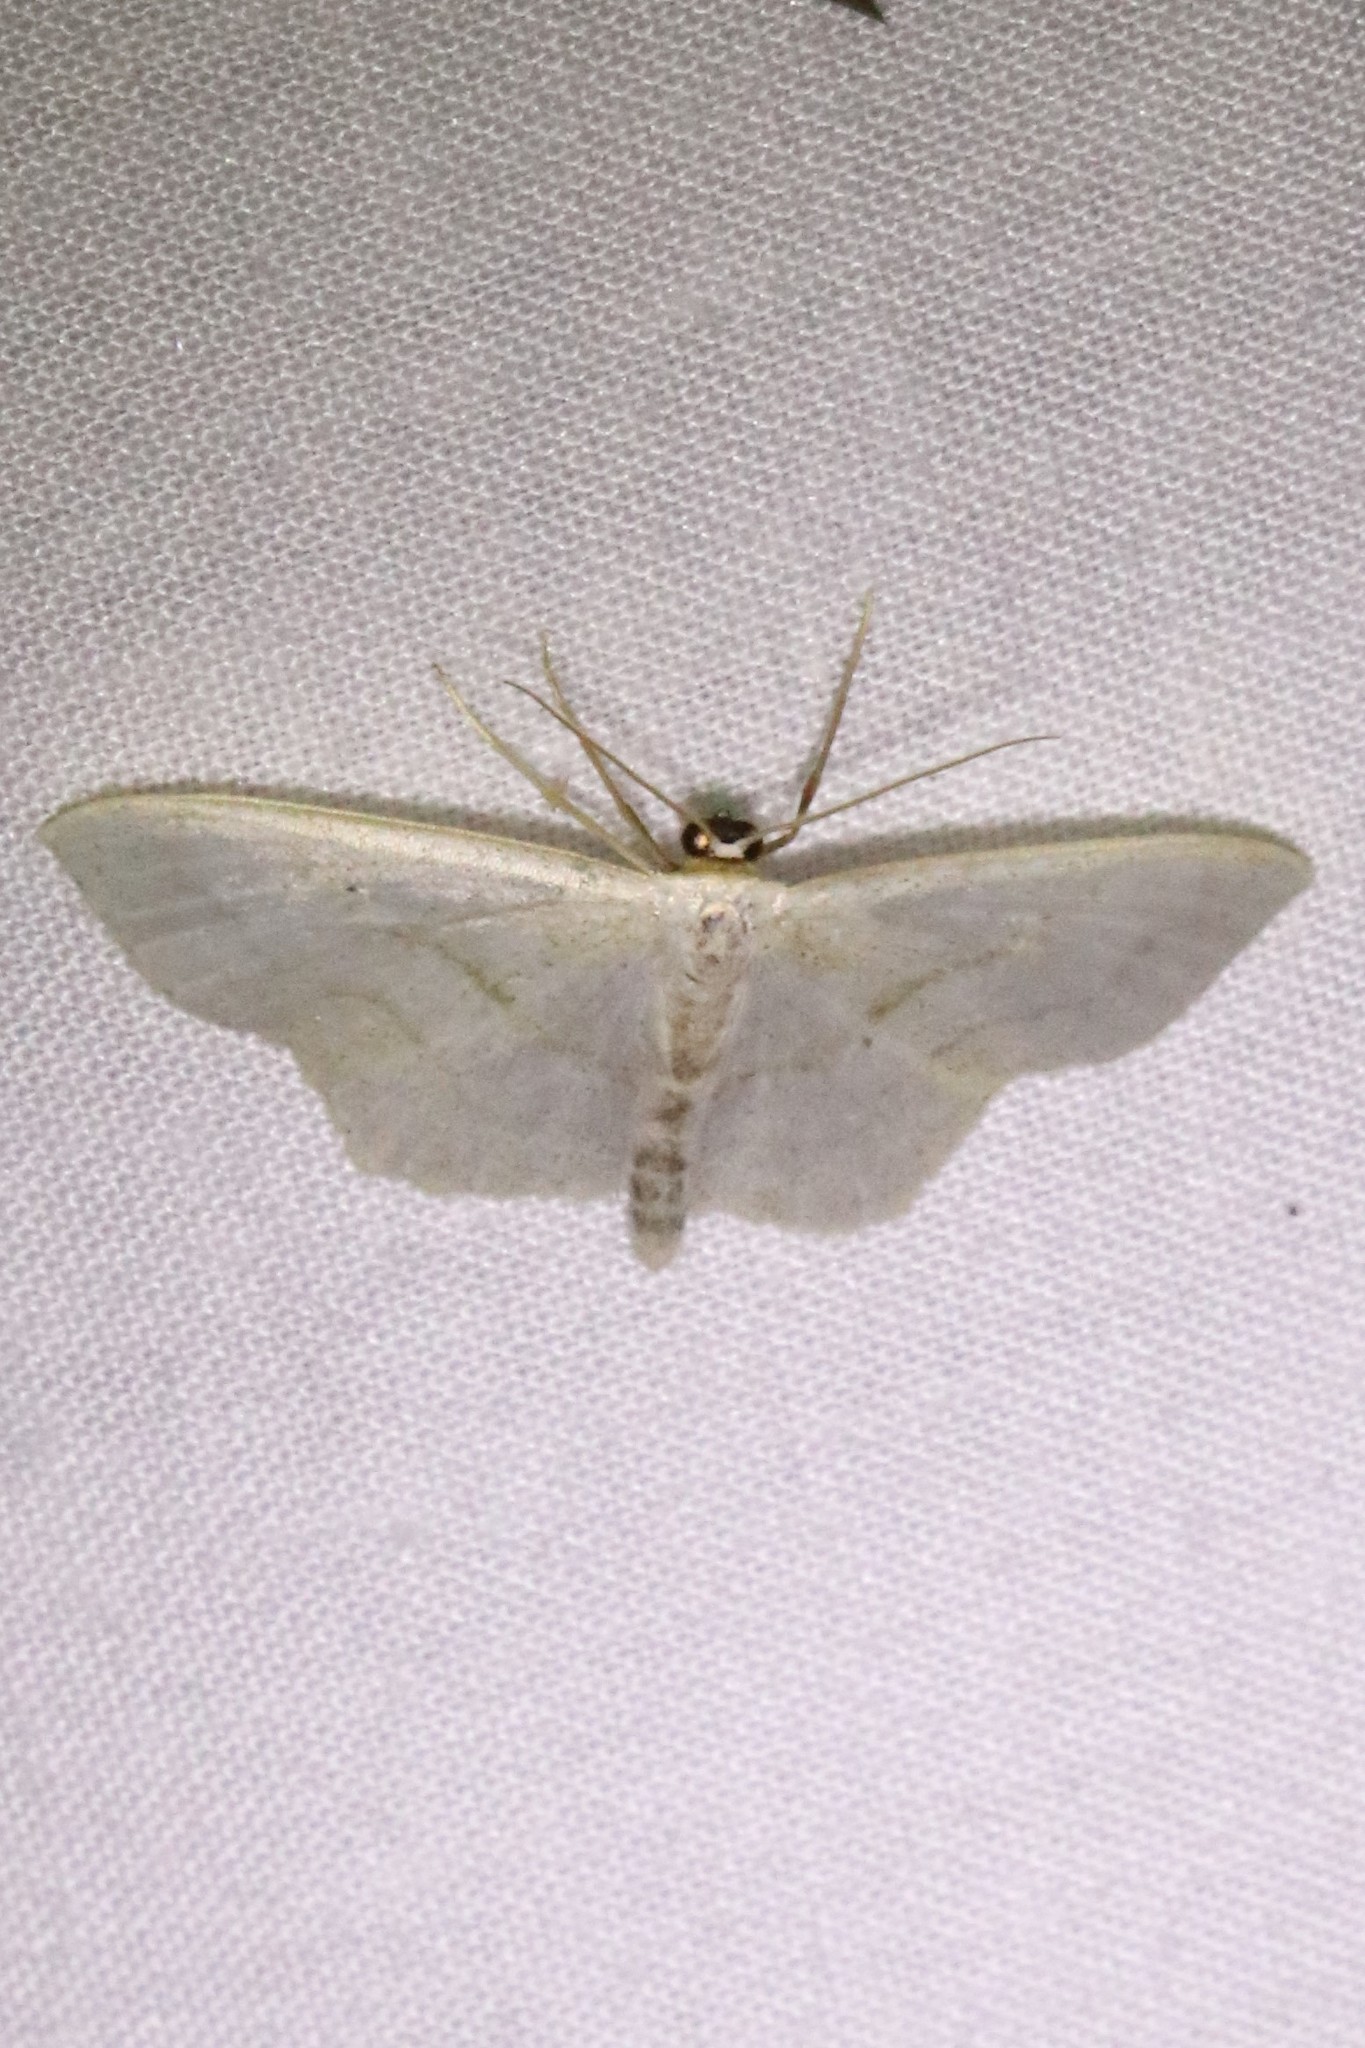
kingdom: Animalia
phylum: Arthropoda
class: Insecta
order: Lepidoptera
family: Geometridae
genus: Scopula
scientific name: Scopula limboundata
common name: Large lace border
